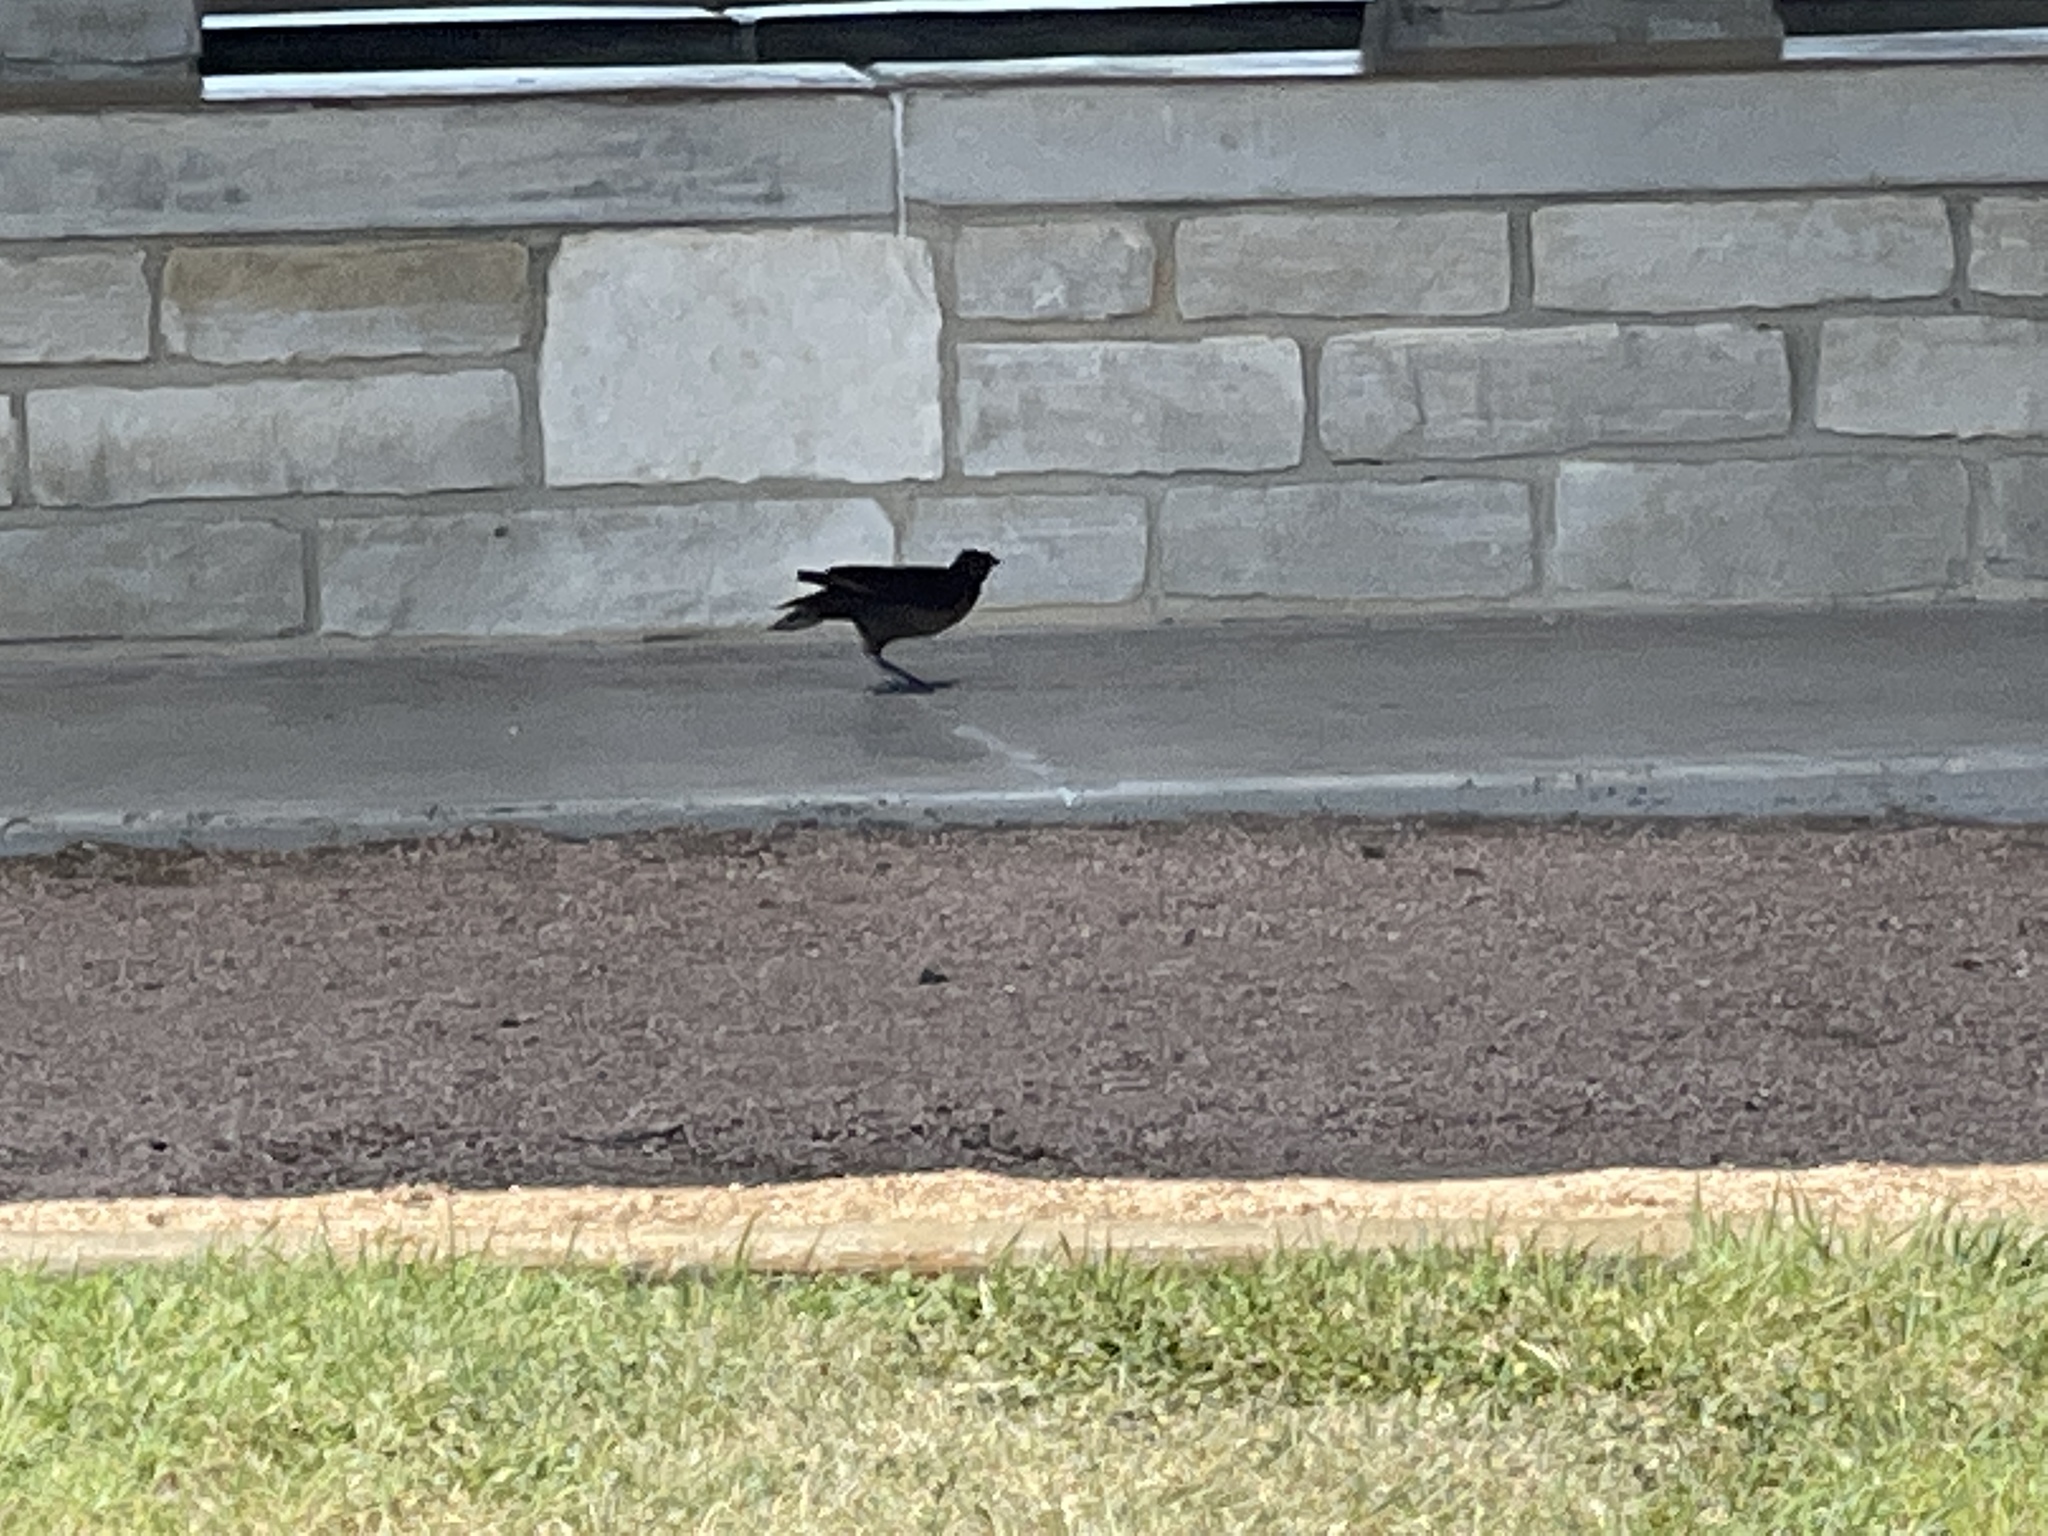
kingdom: Animalia
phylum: Chordata
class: Aves
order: Passeriformes
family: Icteridae
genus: Quiscalus
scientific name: Quiscalus mexicanus
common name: Great-tailed grackle
